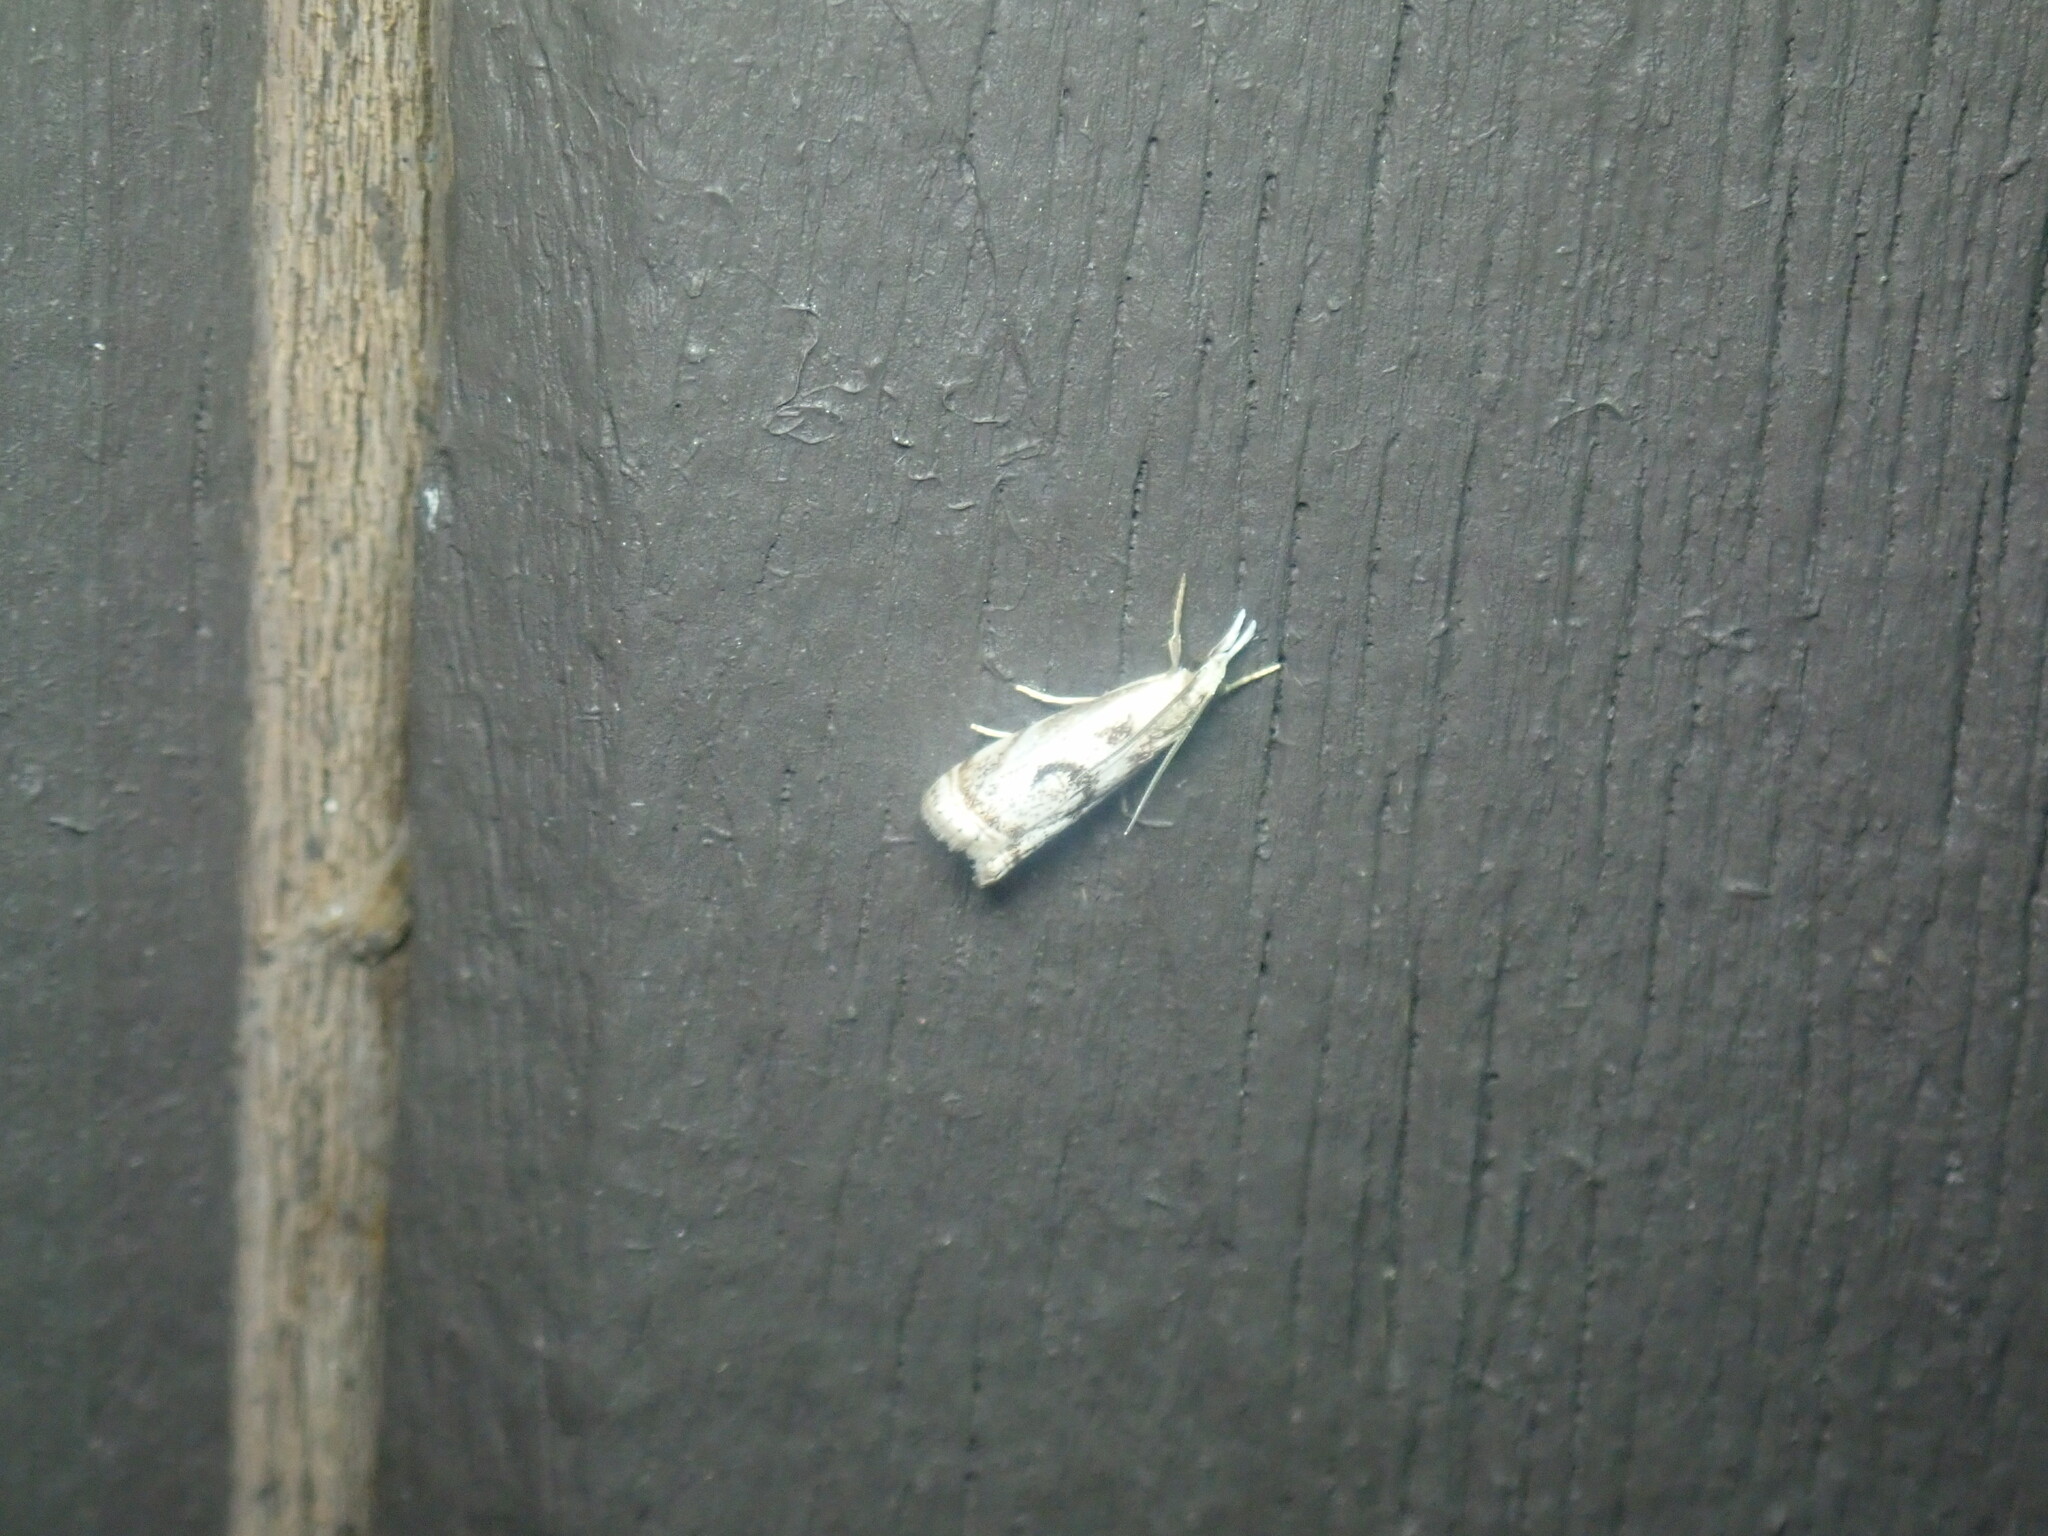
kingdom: Animalia
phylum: Arthropoda
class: Insecta
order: Lepidoptera
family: Crambidae
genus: Microcrambus
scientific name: Microcrambus elegans
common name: Elegant grass-veneer
